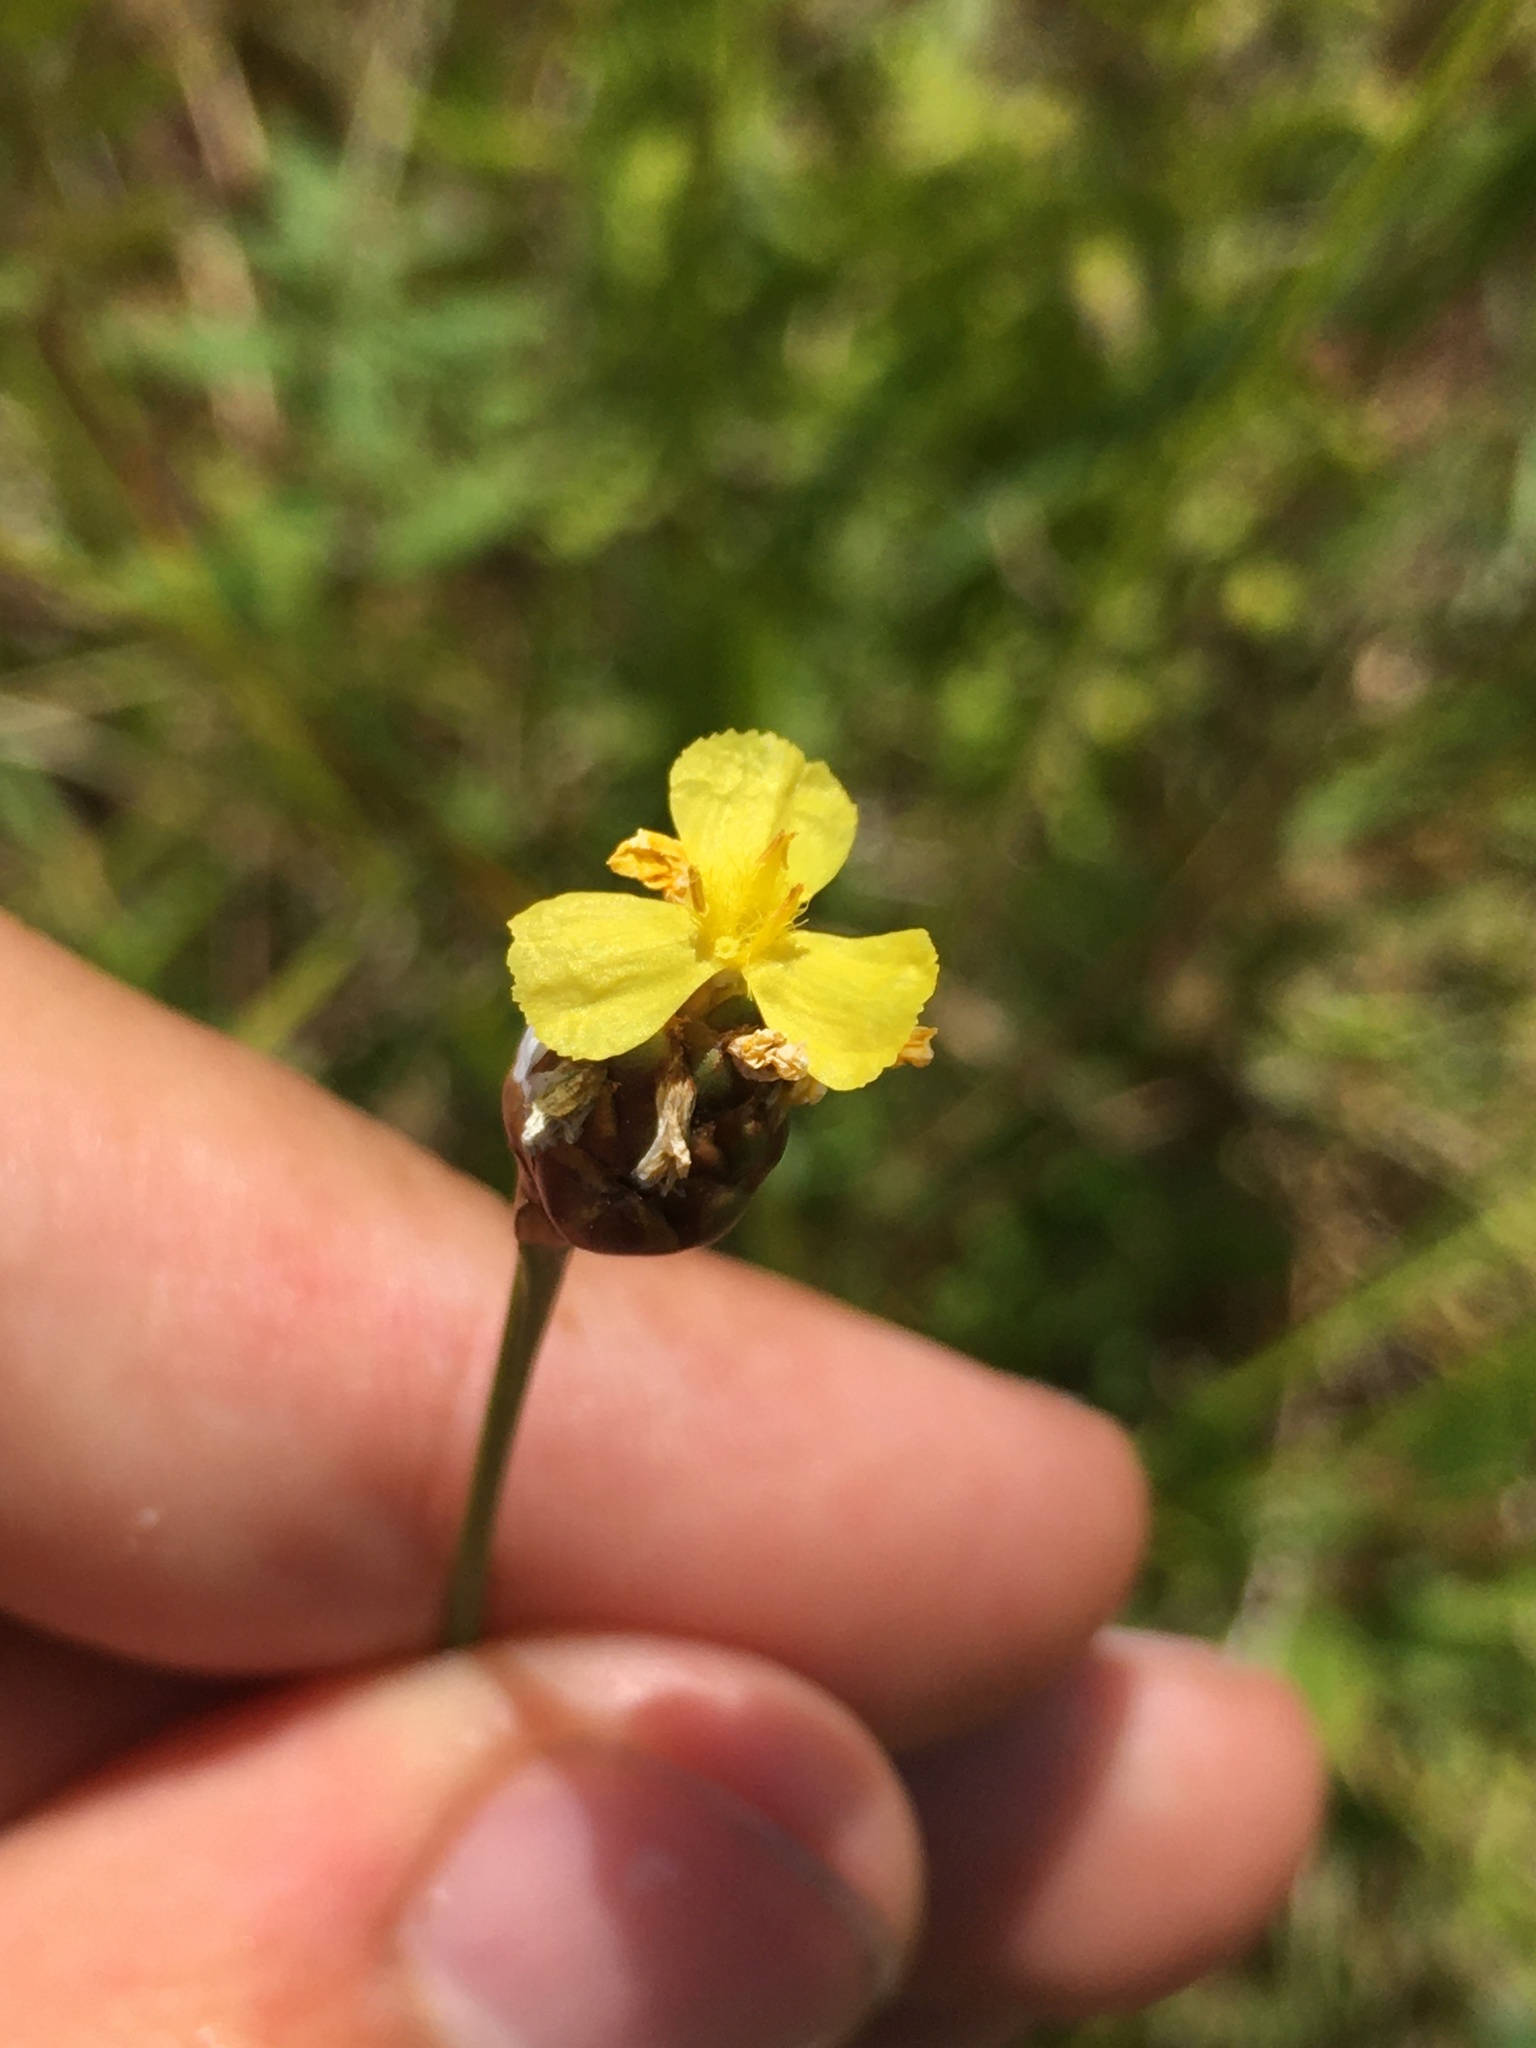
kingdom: Plantae
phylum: Tracheophyta
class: Liliopsida
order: Poales
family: Xyridaceae
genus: Xyris
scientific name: Xyris torta
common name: Common yelloweyed grass
